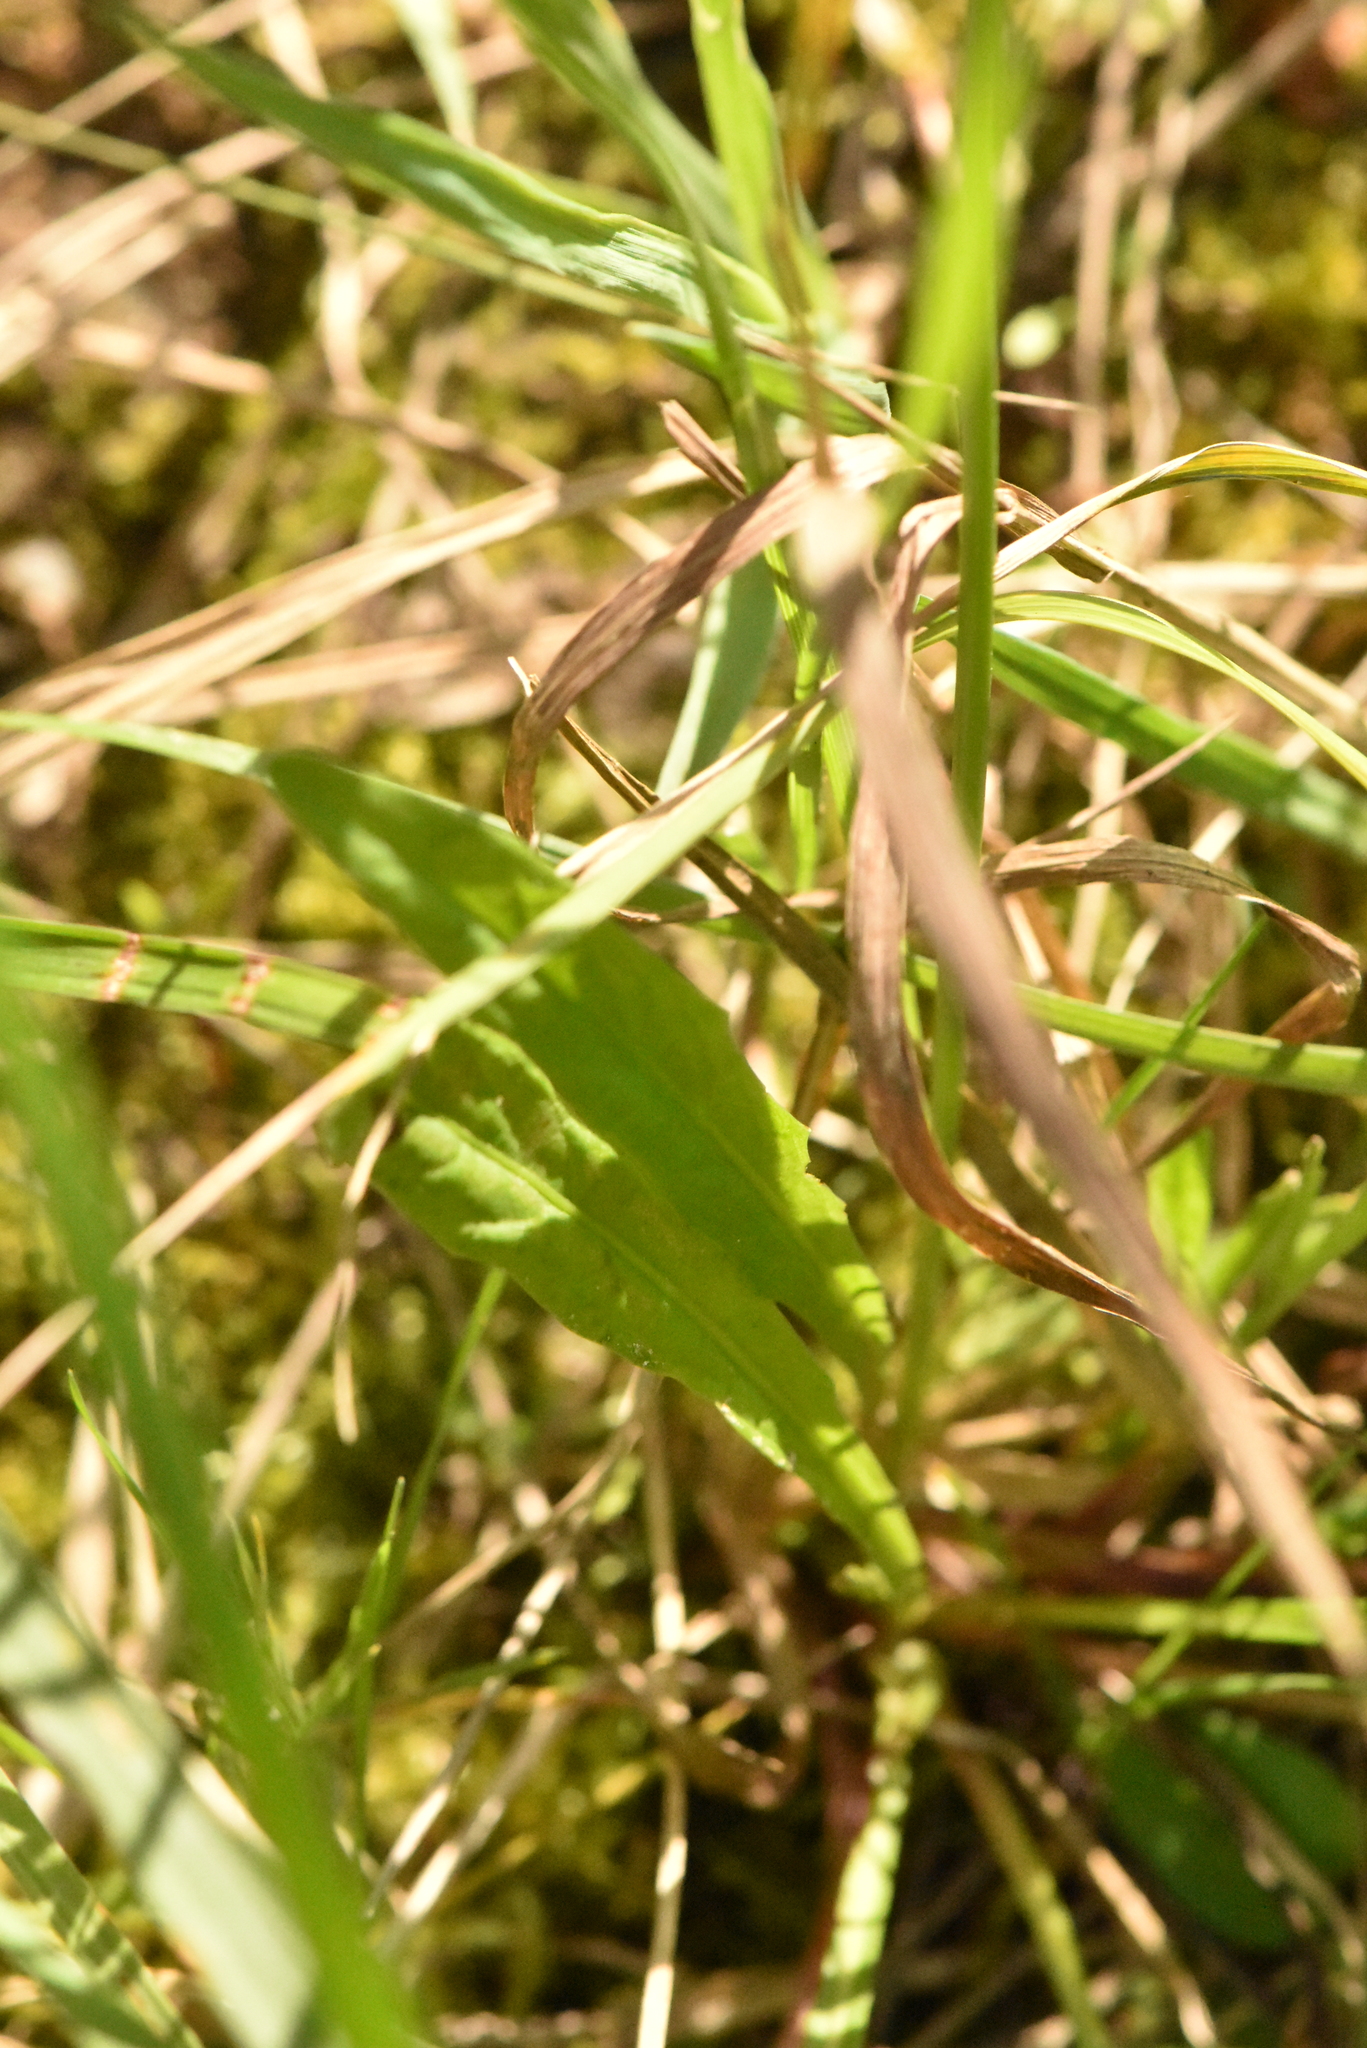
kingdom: Plantae
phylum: Tracheophyta
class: Magnoliopsida
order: Asterales
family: Asteraceae
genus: Scorzoneroides
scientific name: Scorzoneroides autumnalis
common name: Autumn hawkbit
